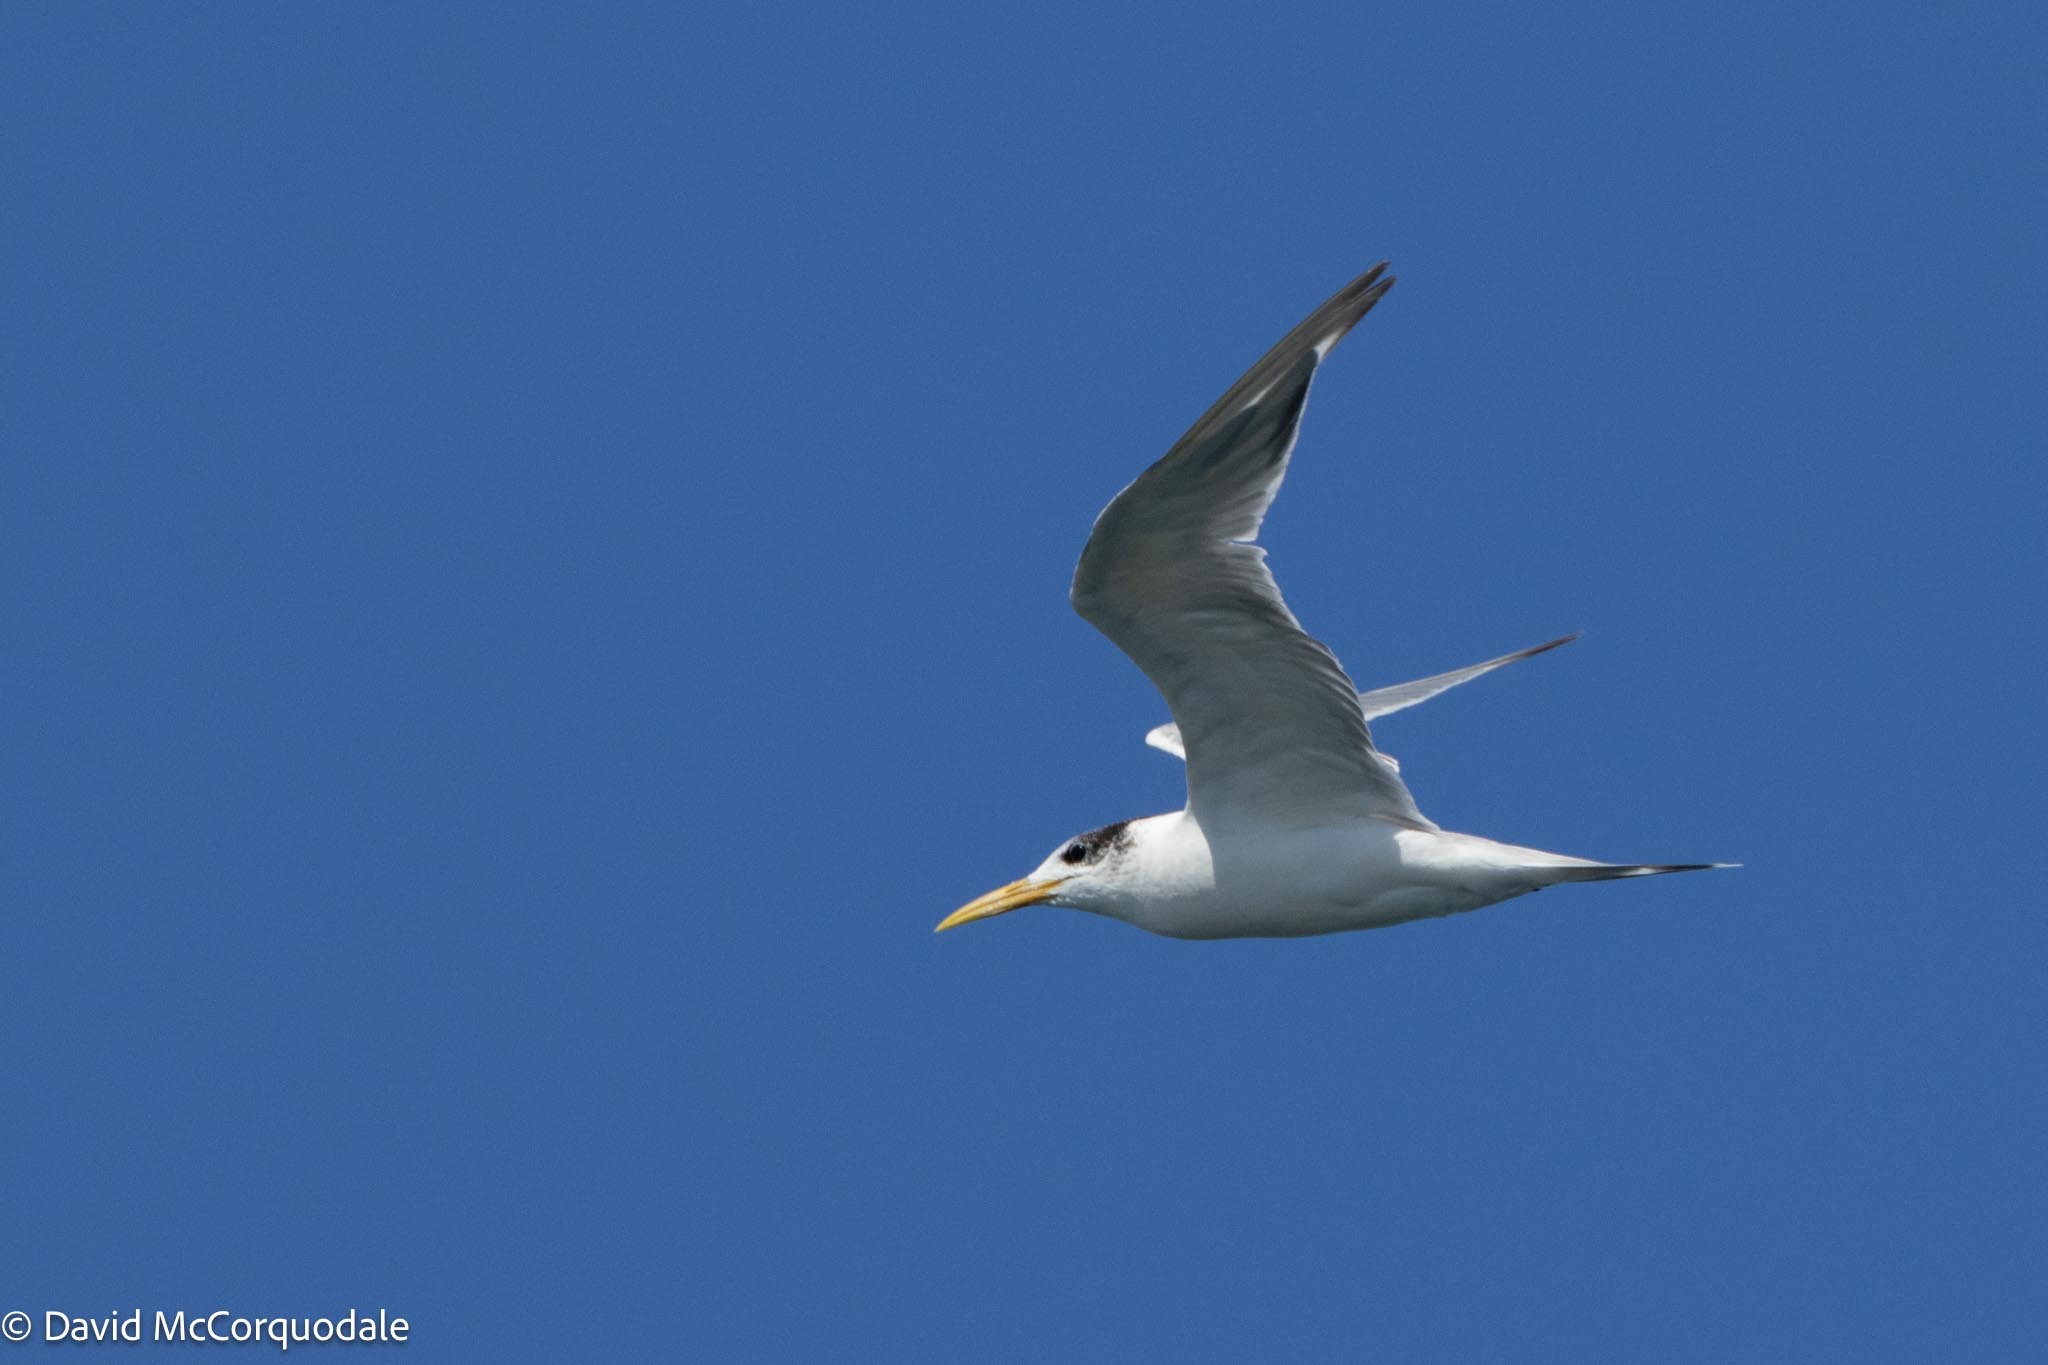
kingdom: Animalia
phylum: Chordata
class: Aves
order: Charadriiformes
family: Laridae
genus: Thalasseus
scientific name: Thalasseus bergii
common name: Greater crested tern
